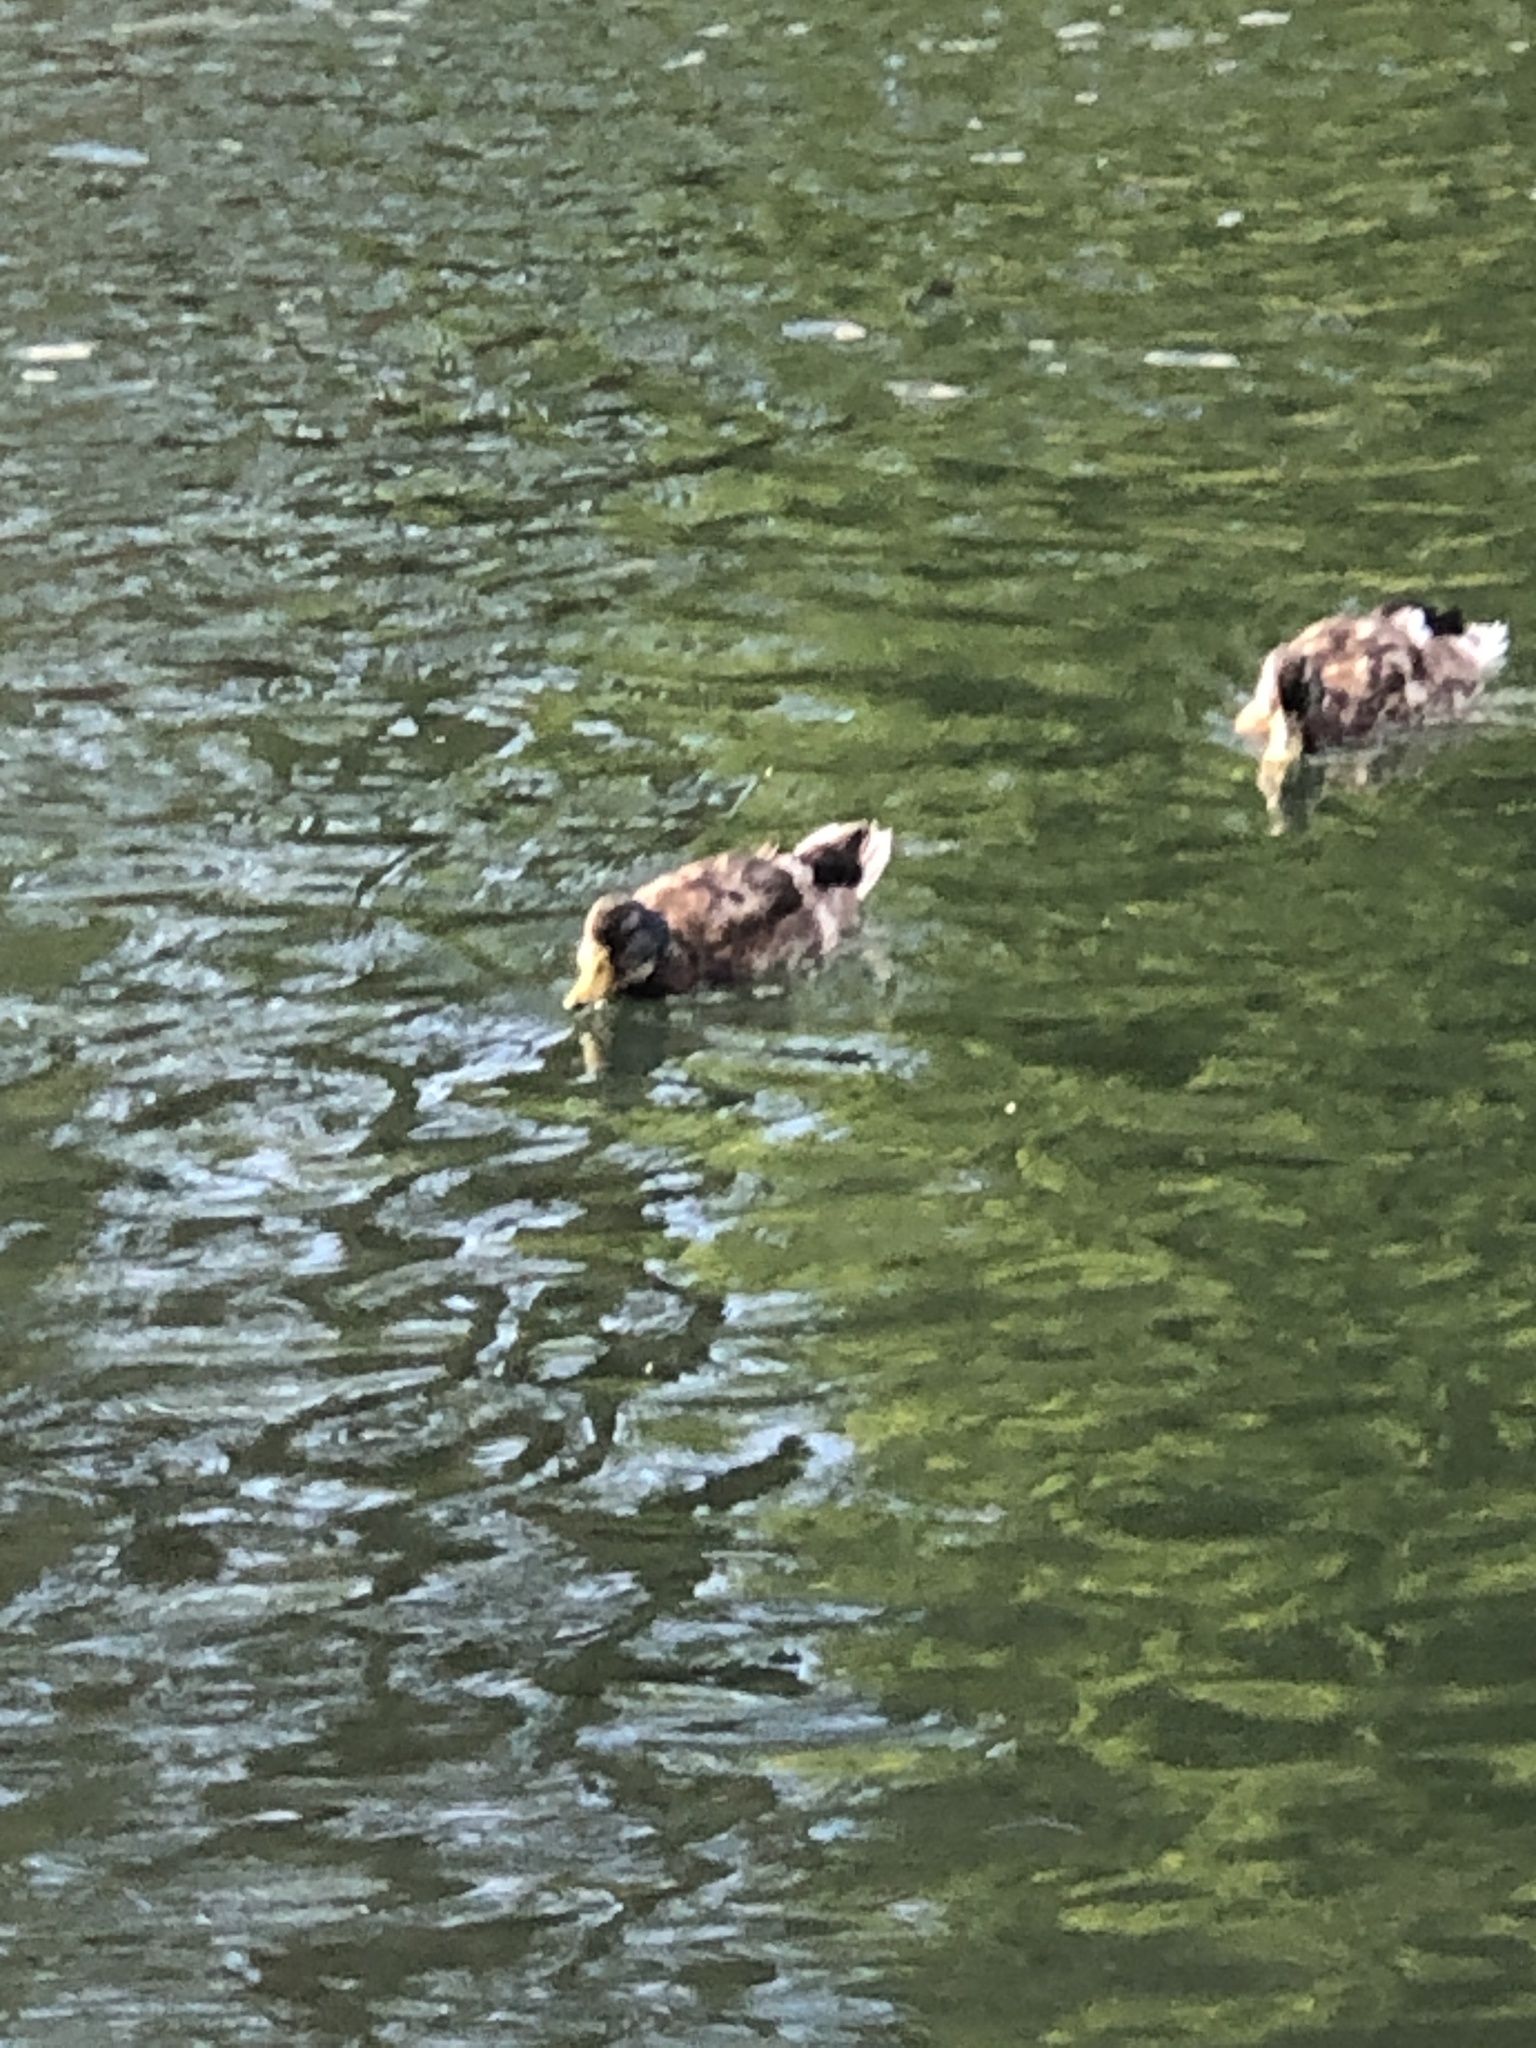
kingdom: Animalia
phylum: Chordata
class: Aves
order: Anseriformes
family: Anatidae
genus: Anas
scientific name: Anas platyrhynchos
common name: Mallard
